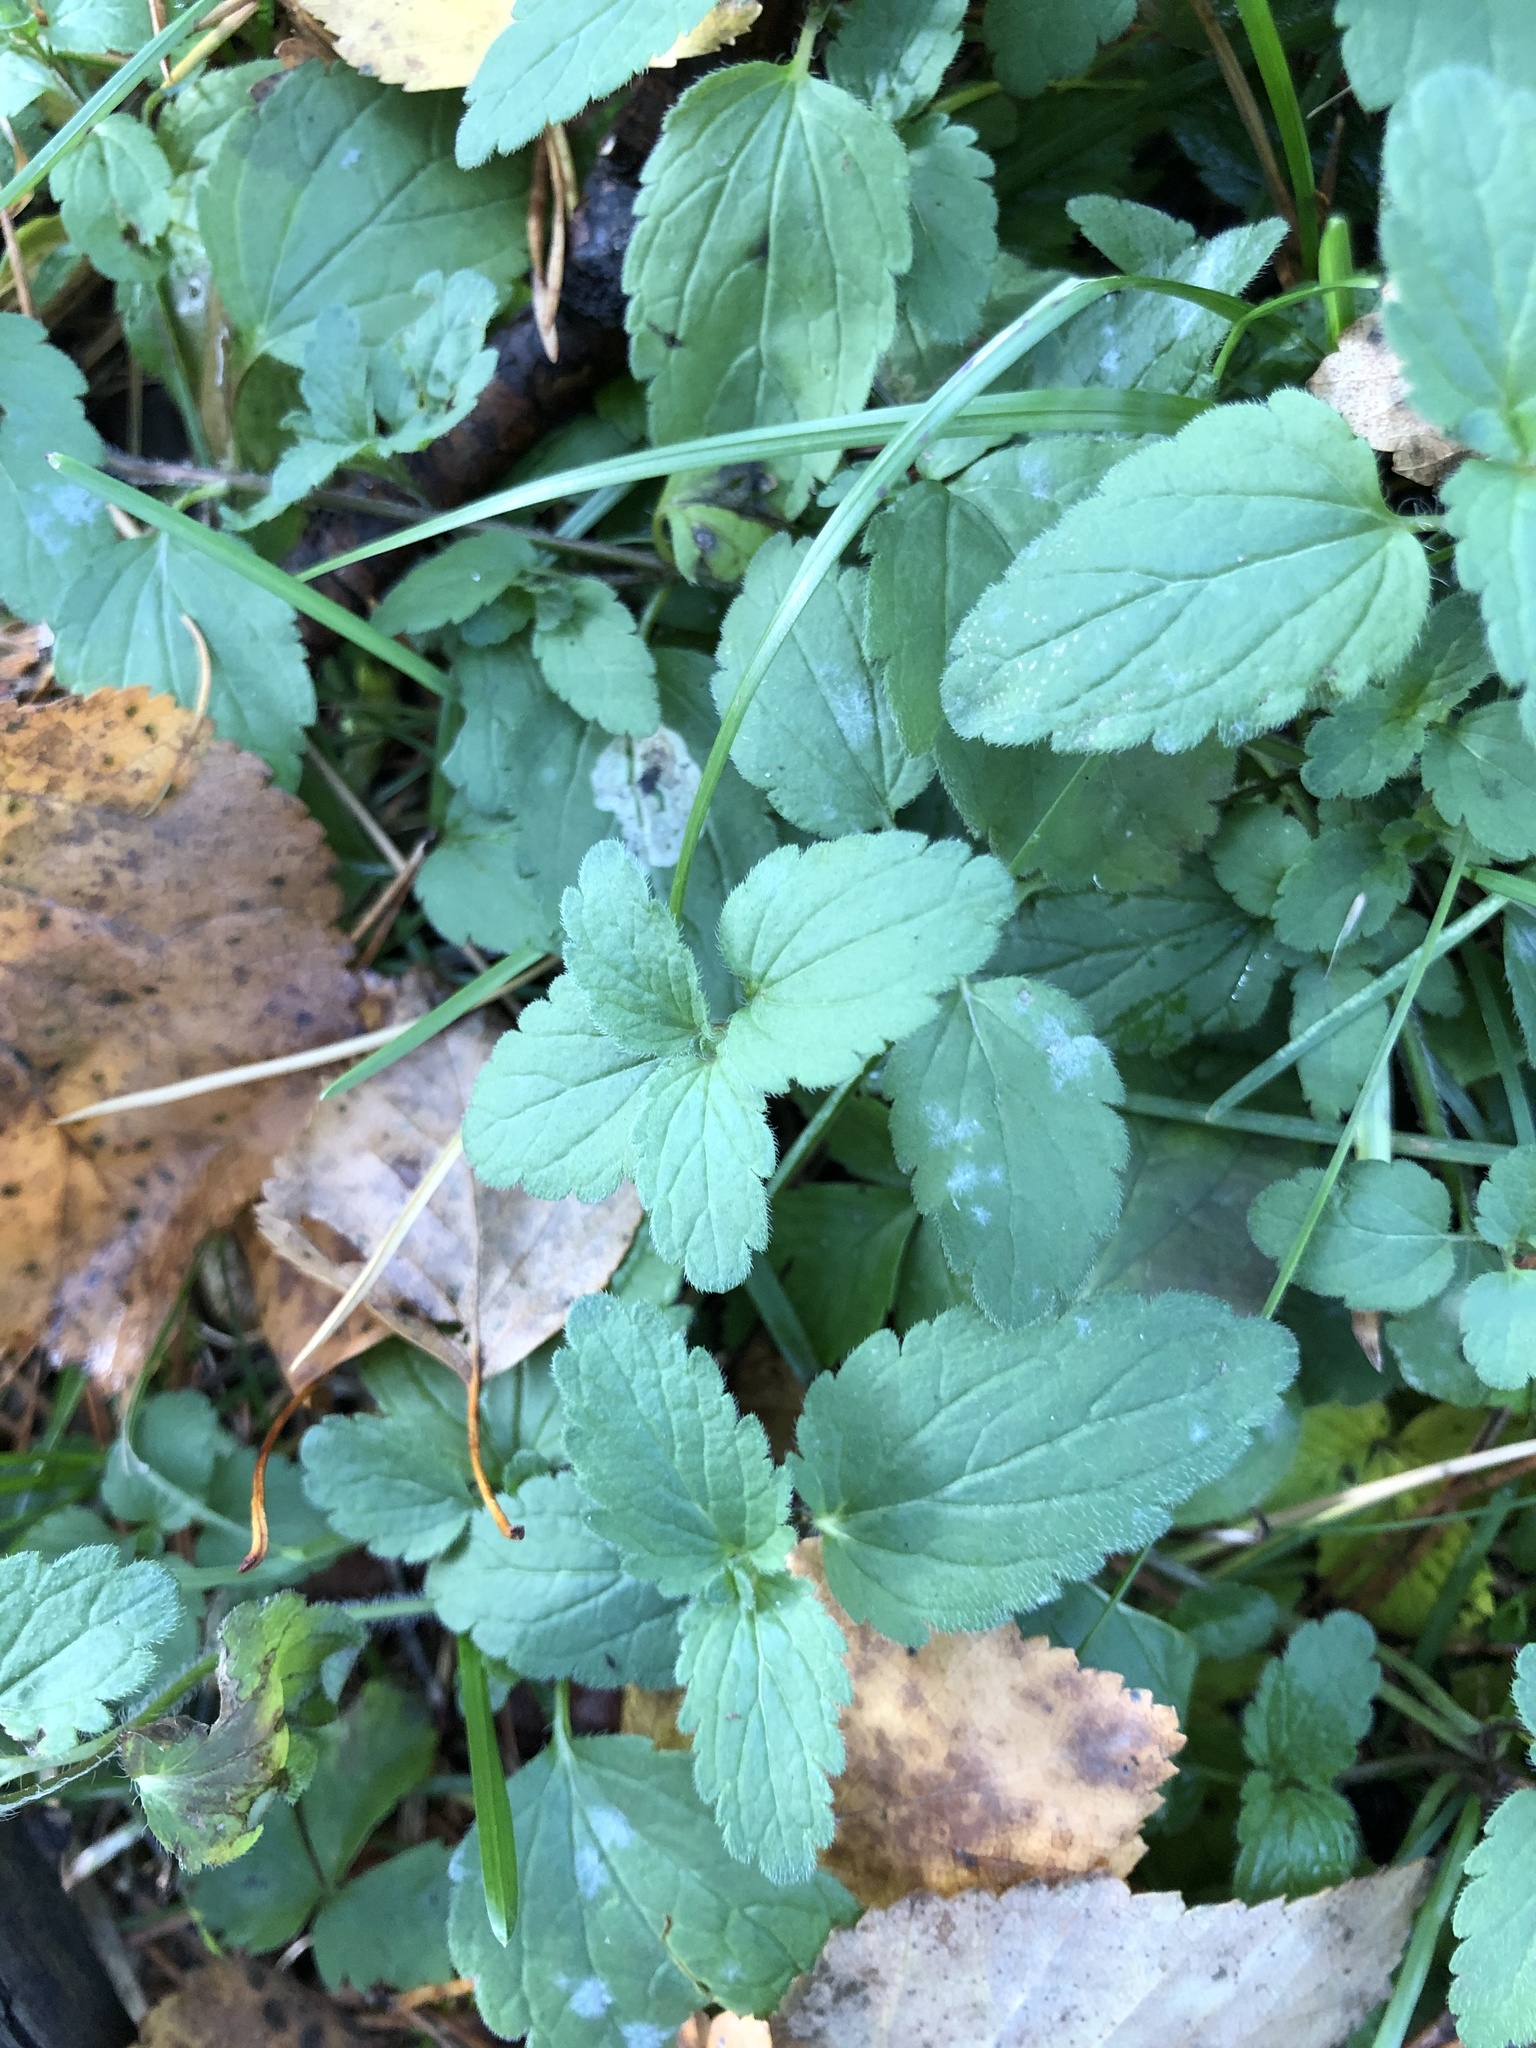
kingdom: Plantae
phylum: Tracheophyta
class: Magnoliopsida
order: Lamiales
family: Plantaginaceae
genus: Veronica
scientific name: Veronica chamaedrys
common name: Germander speedwell
